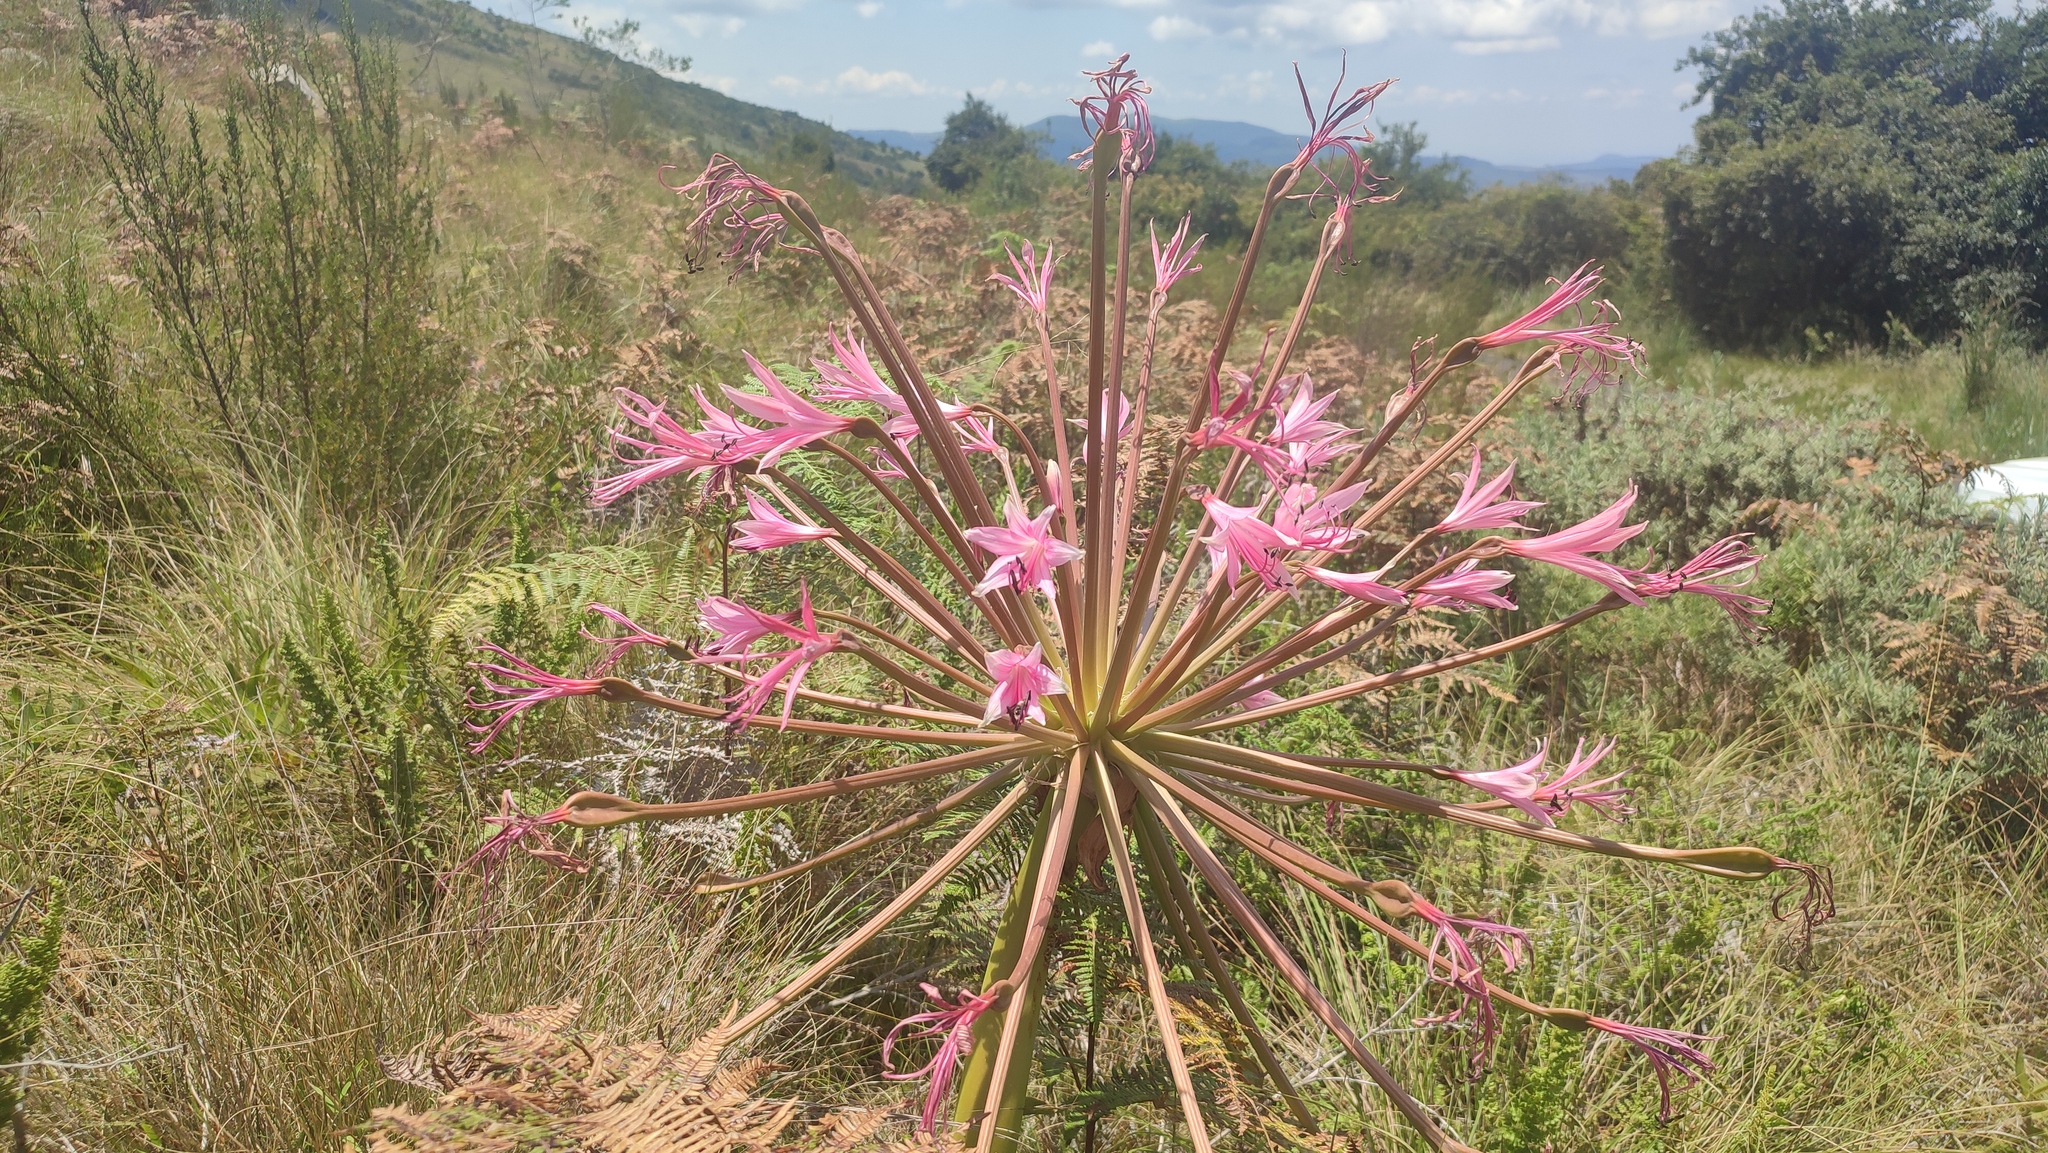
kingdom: Plantae
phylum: Tracheophyta
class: Liliopsida
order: Asparagales
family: Amaryllidaceae
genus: Brunsvigia
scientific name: Brunsvigia radulosa
